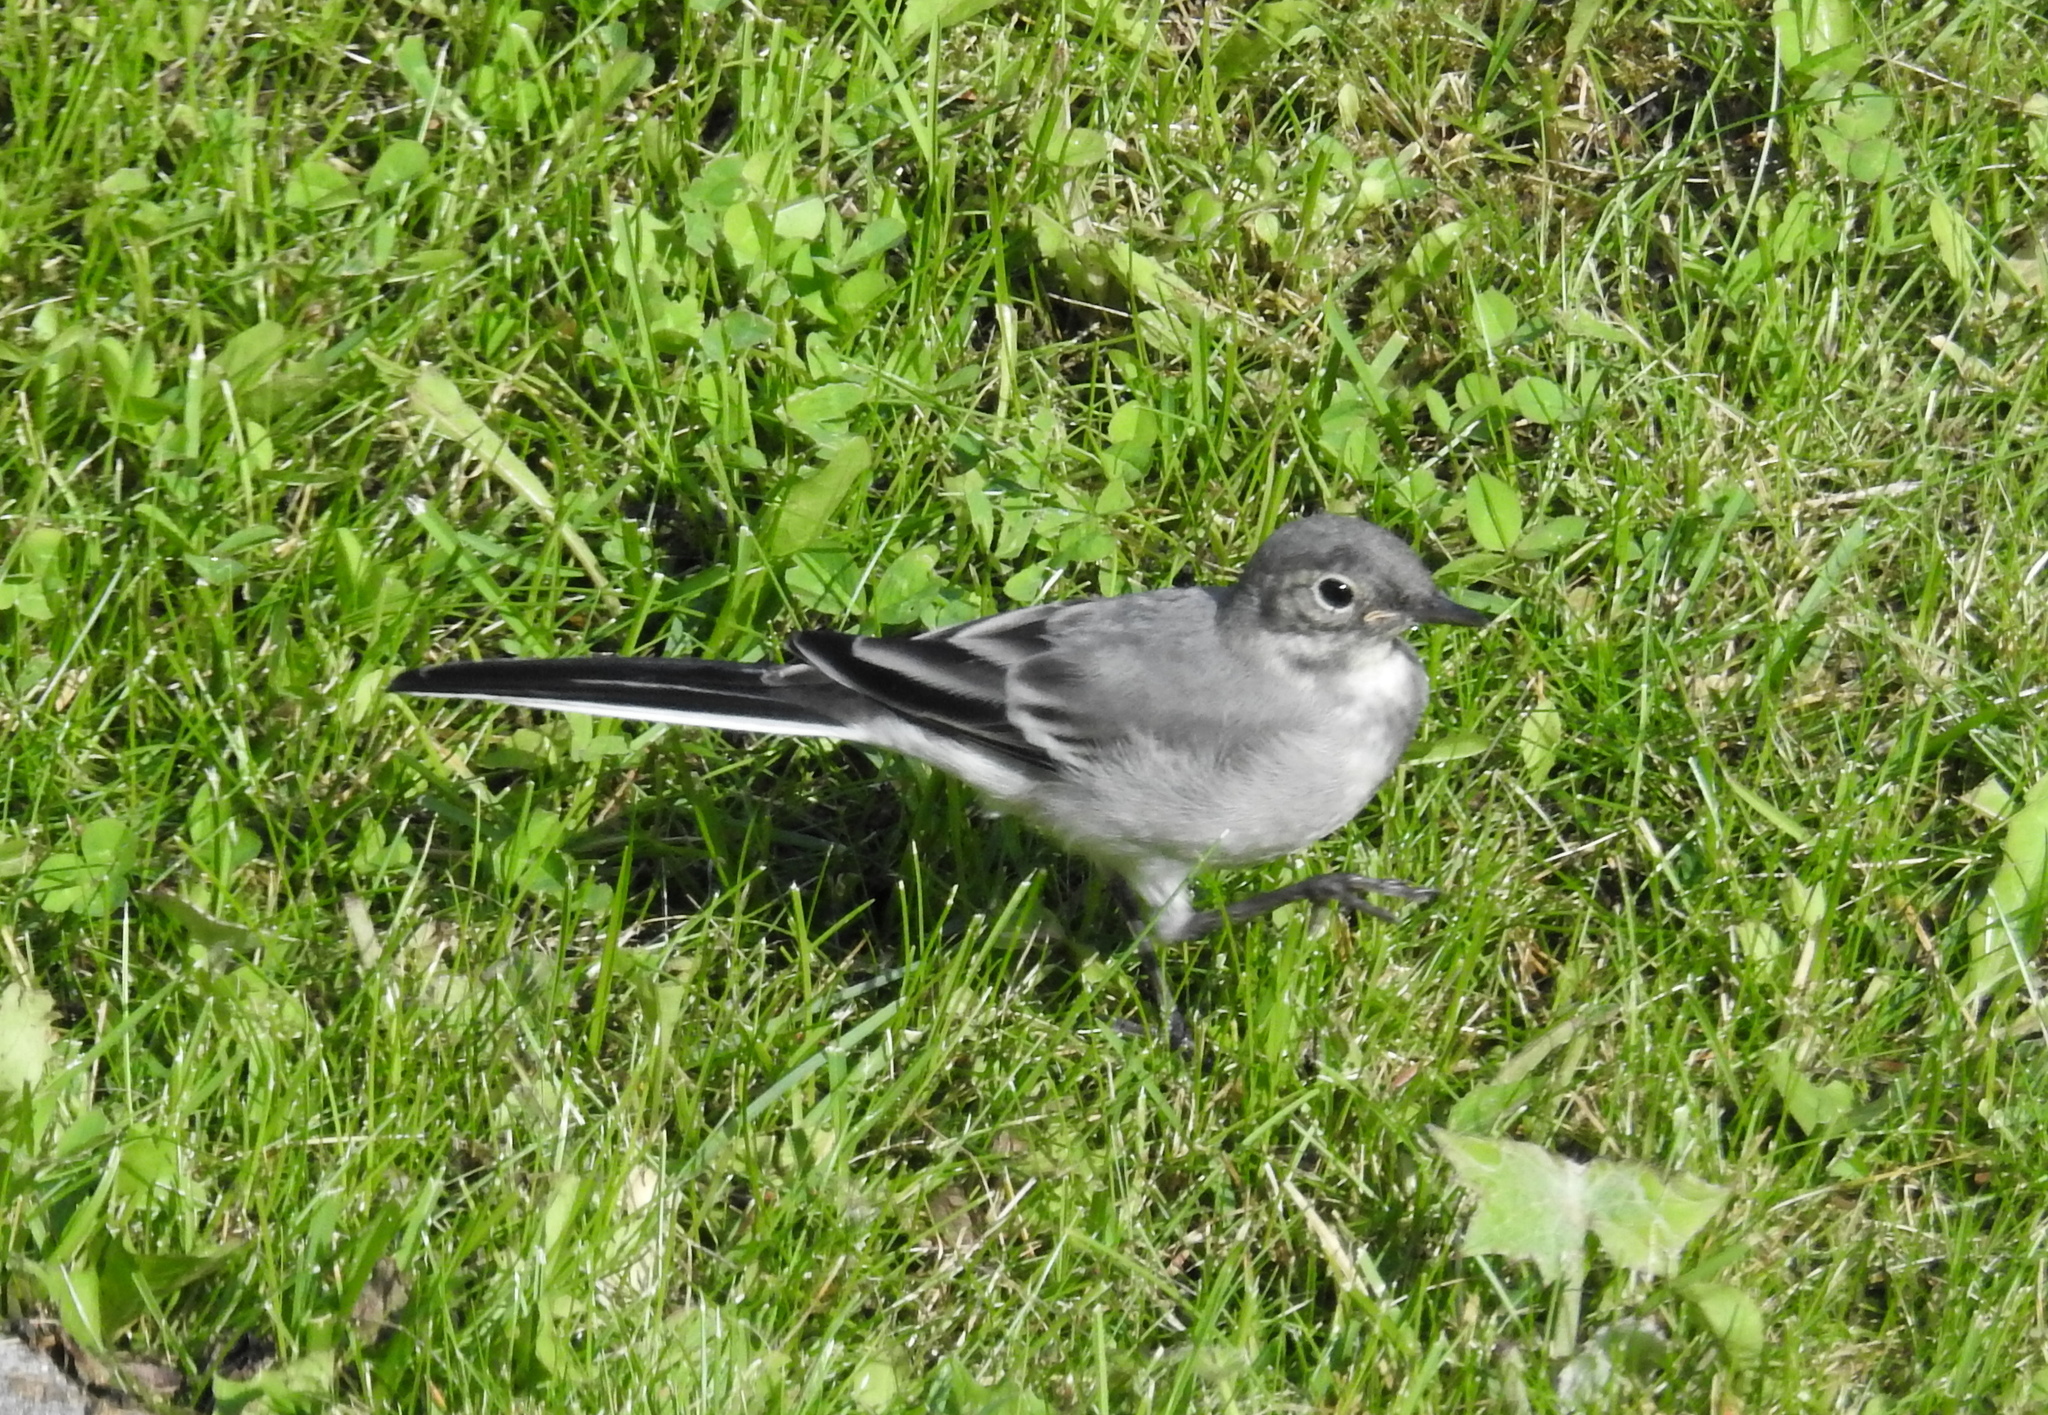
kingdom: Animalia
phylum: Chordata
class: Aves
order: Passeriformes
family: Motacillidae
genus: Motacilla
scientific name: Motacilla alba
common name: White wagtail
